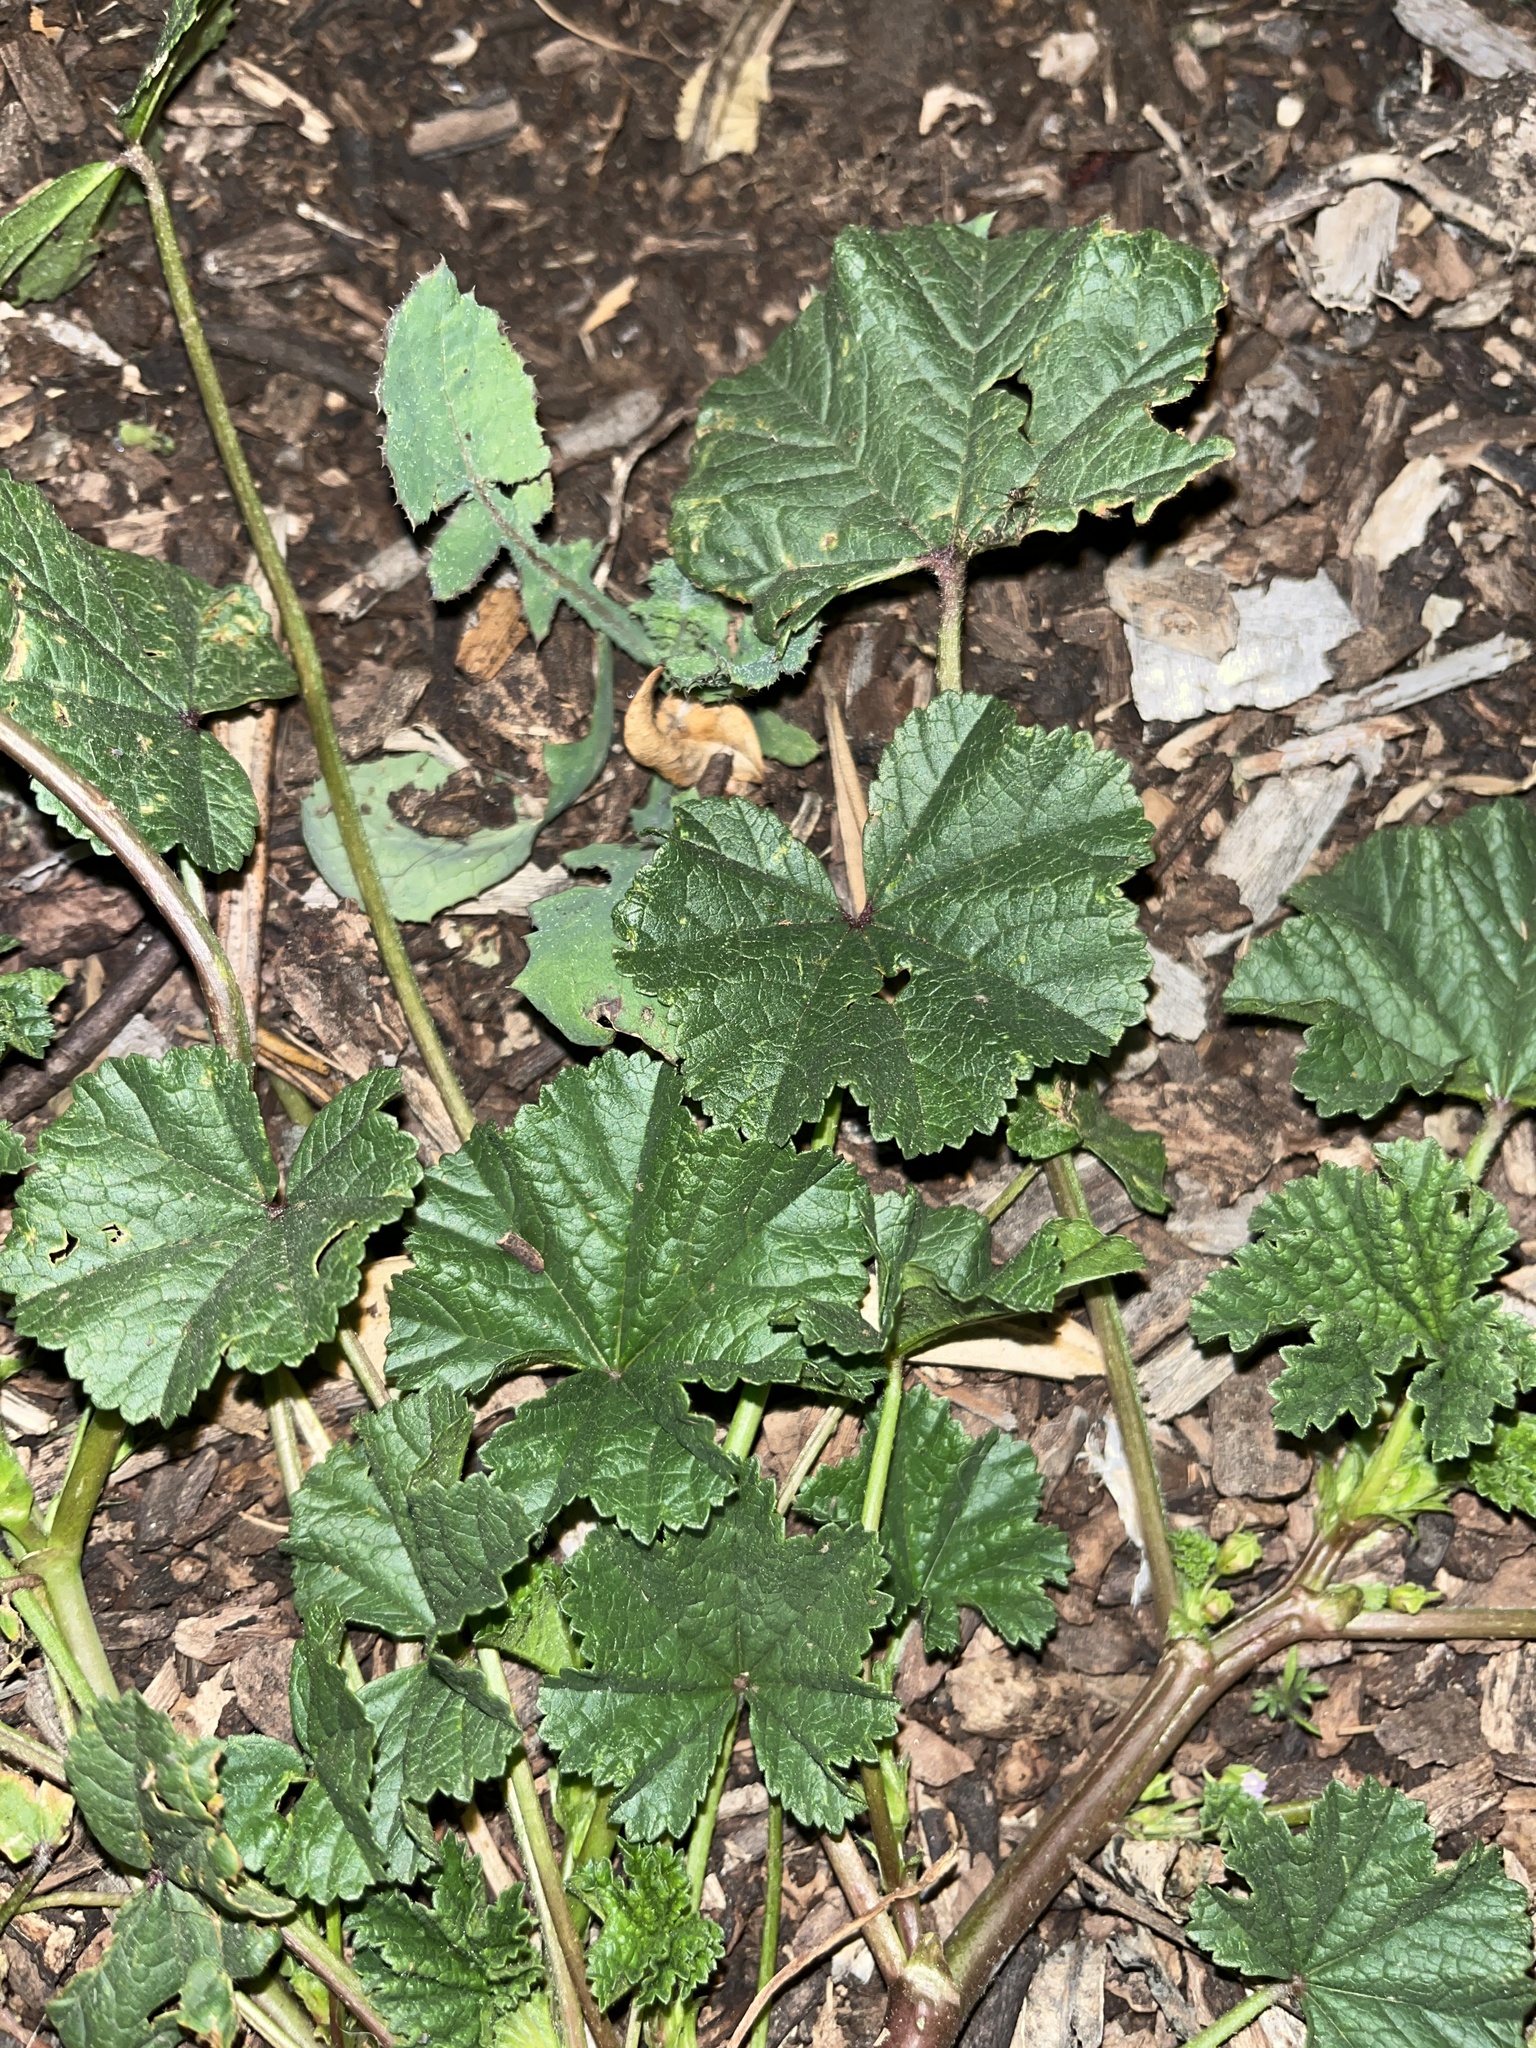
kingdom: Plantae
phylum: Tracheophyta
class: Magnoliopsida
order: Malvales
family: Malvaceae
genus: Malva
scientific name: Malva
